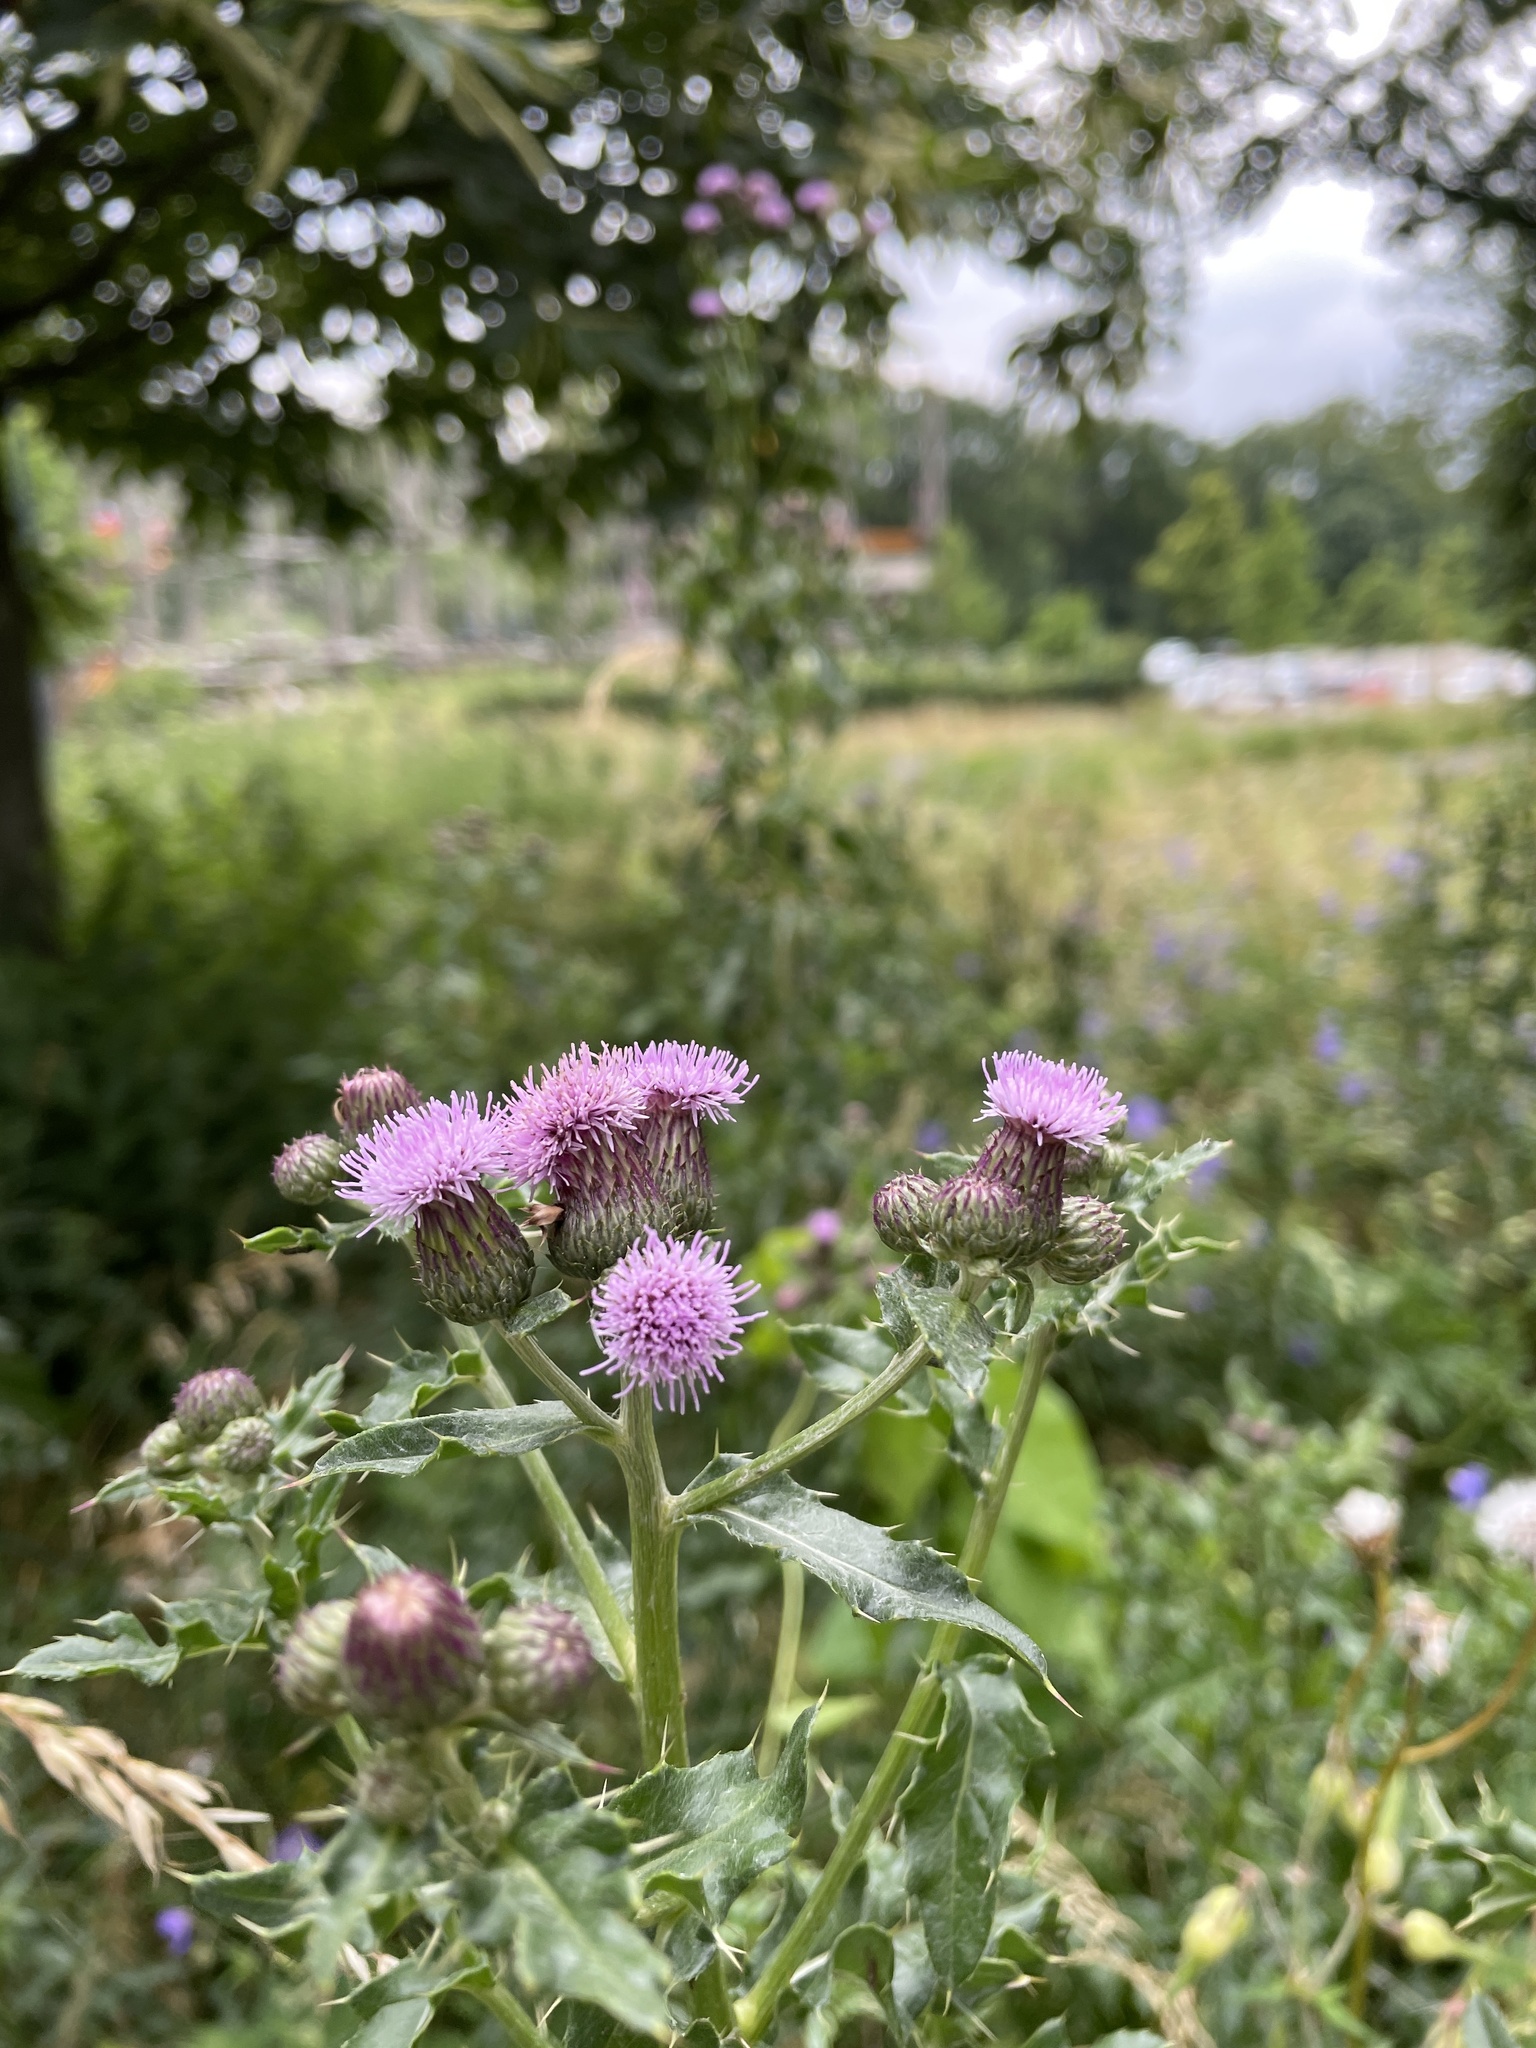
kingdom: Plantae
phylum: Tracheophyta
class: Magnoliopsida
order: Asterales
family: Asteraceae
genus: Cirsium
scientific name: Cirsium arvense
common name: Creeping thistle
